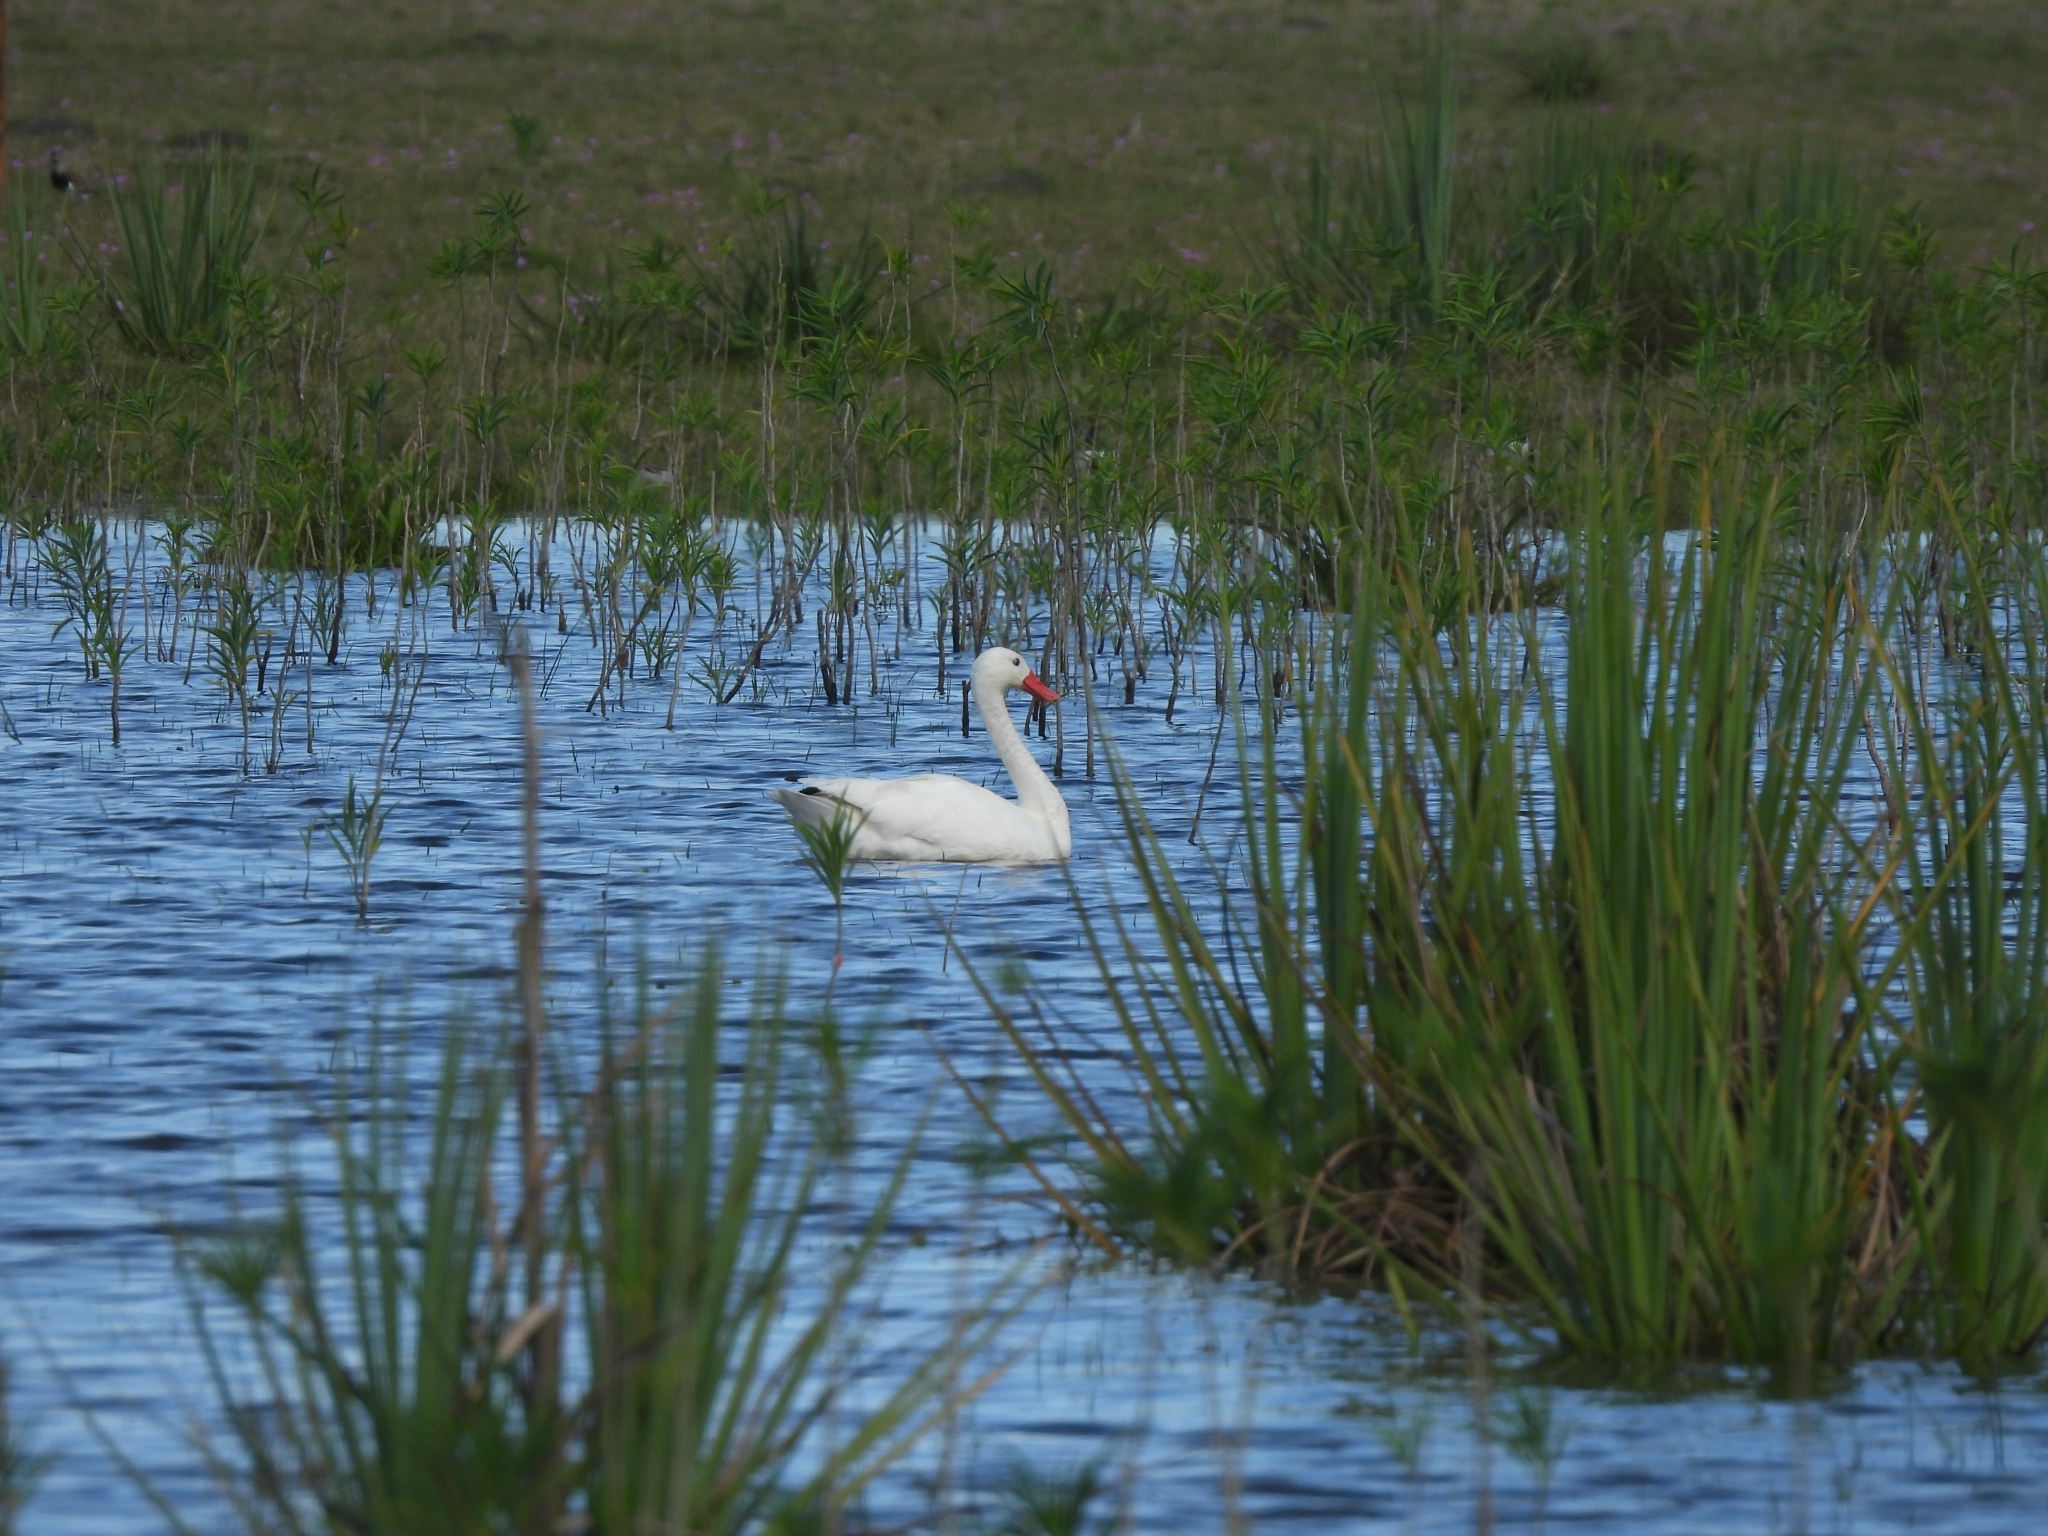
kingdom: Animalia
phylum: Chordata
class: Aves
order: Anseriformes
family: Anatidae
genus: Coscoroba
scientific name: Coscoroba coscoroba
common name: Coscoroba swan
